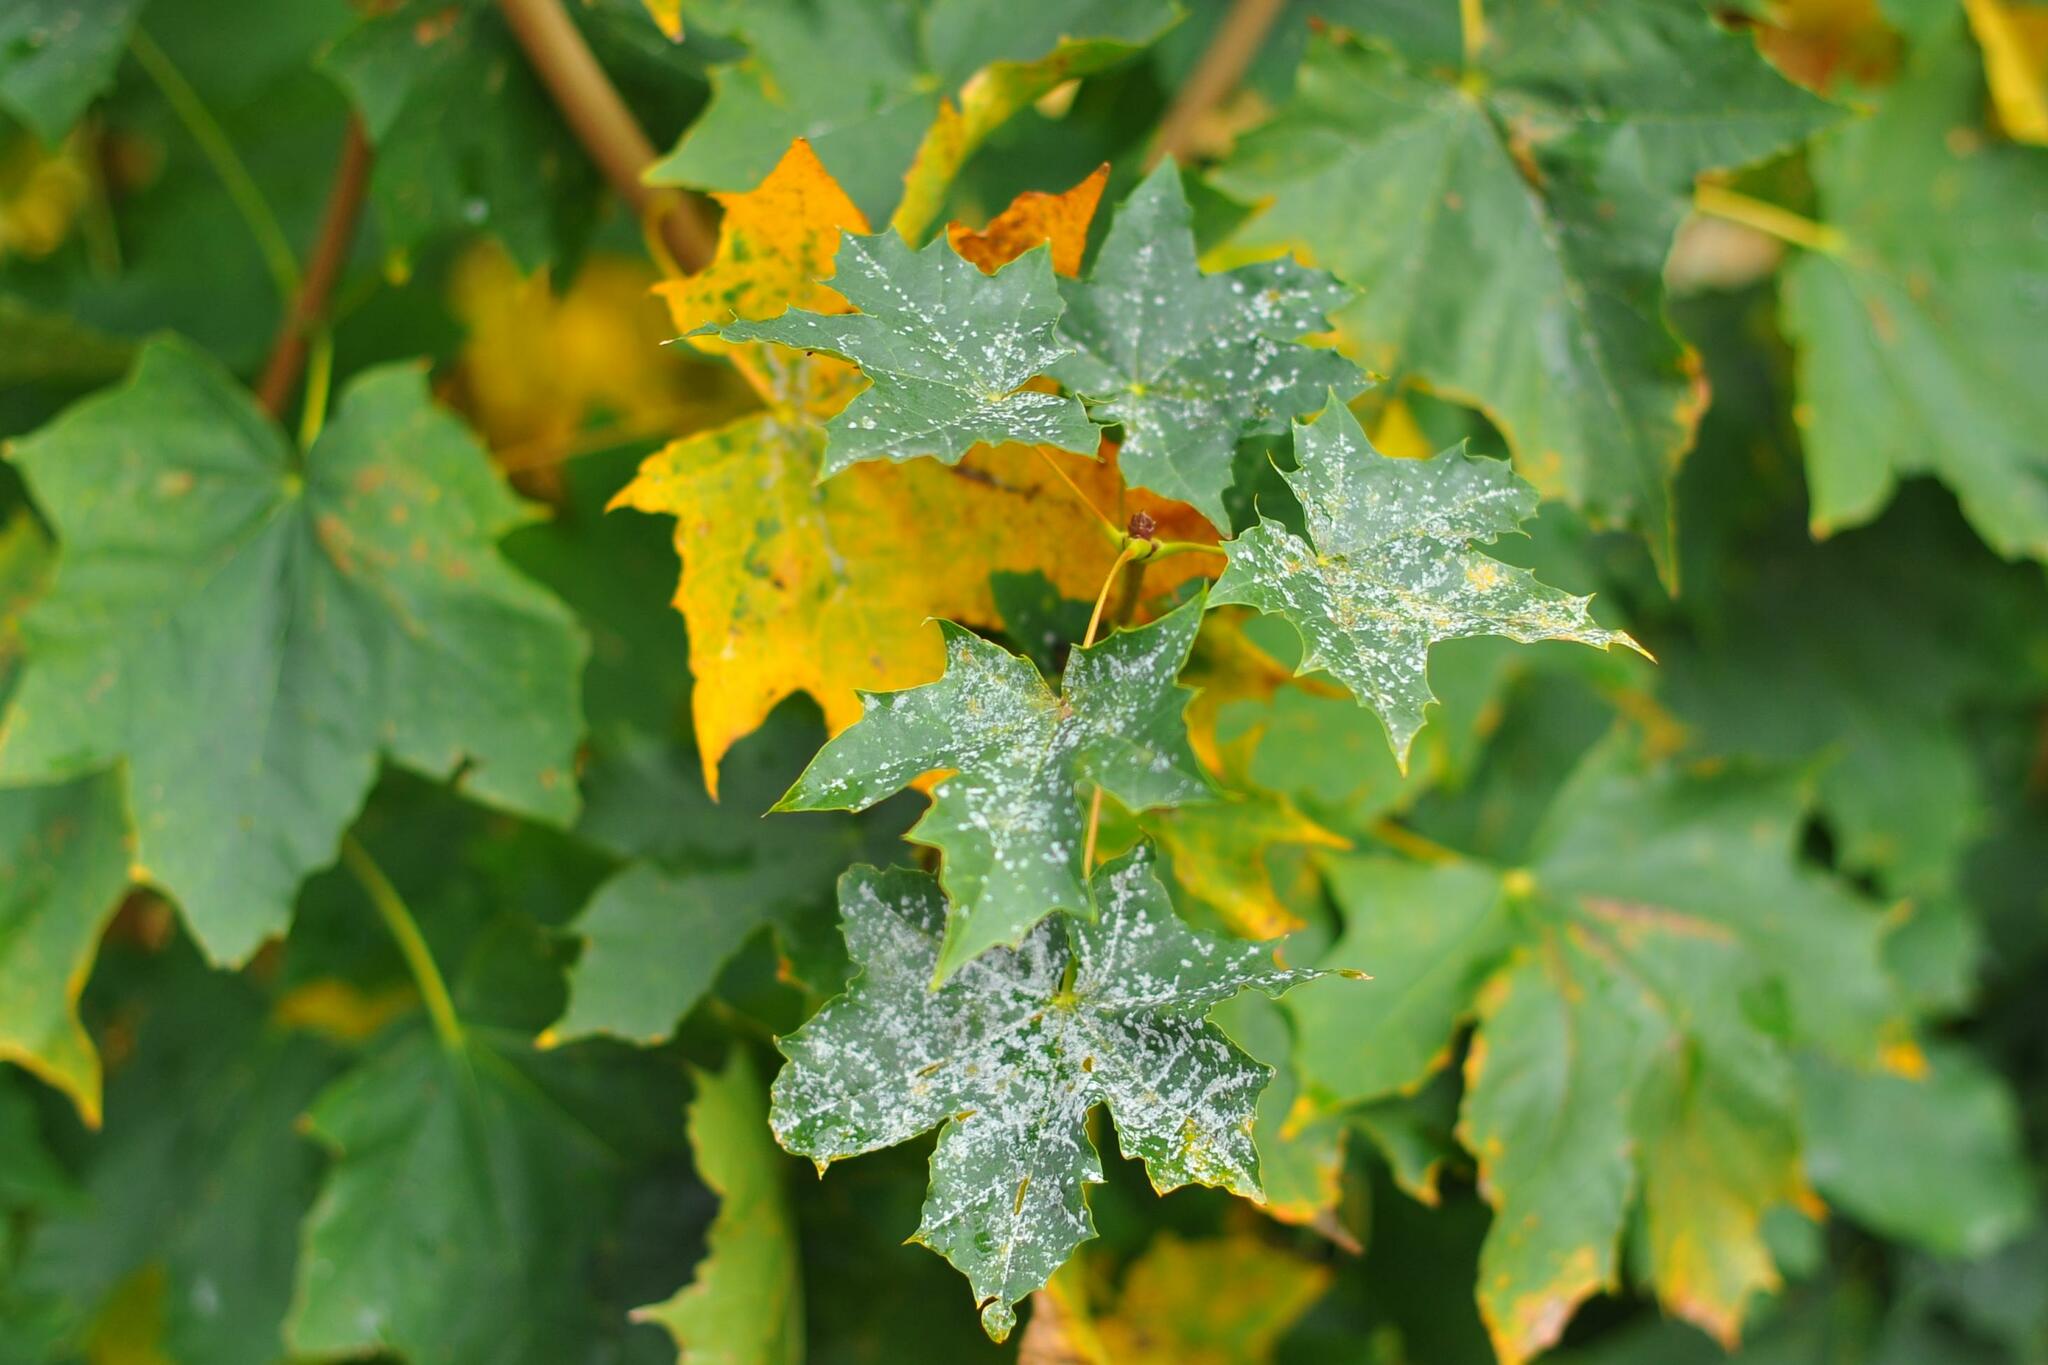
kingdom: Fungi
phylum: Ascomycota
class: Leotiomycetes
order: Helotiales
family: Erysiphaceae
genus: Sawadaea
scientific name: Sawadaea tulasnei
